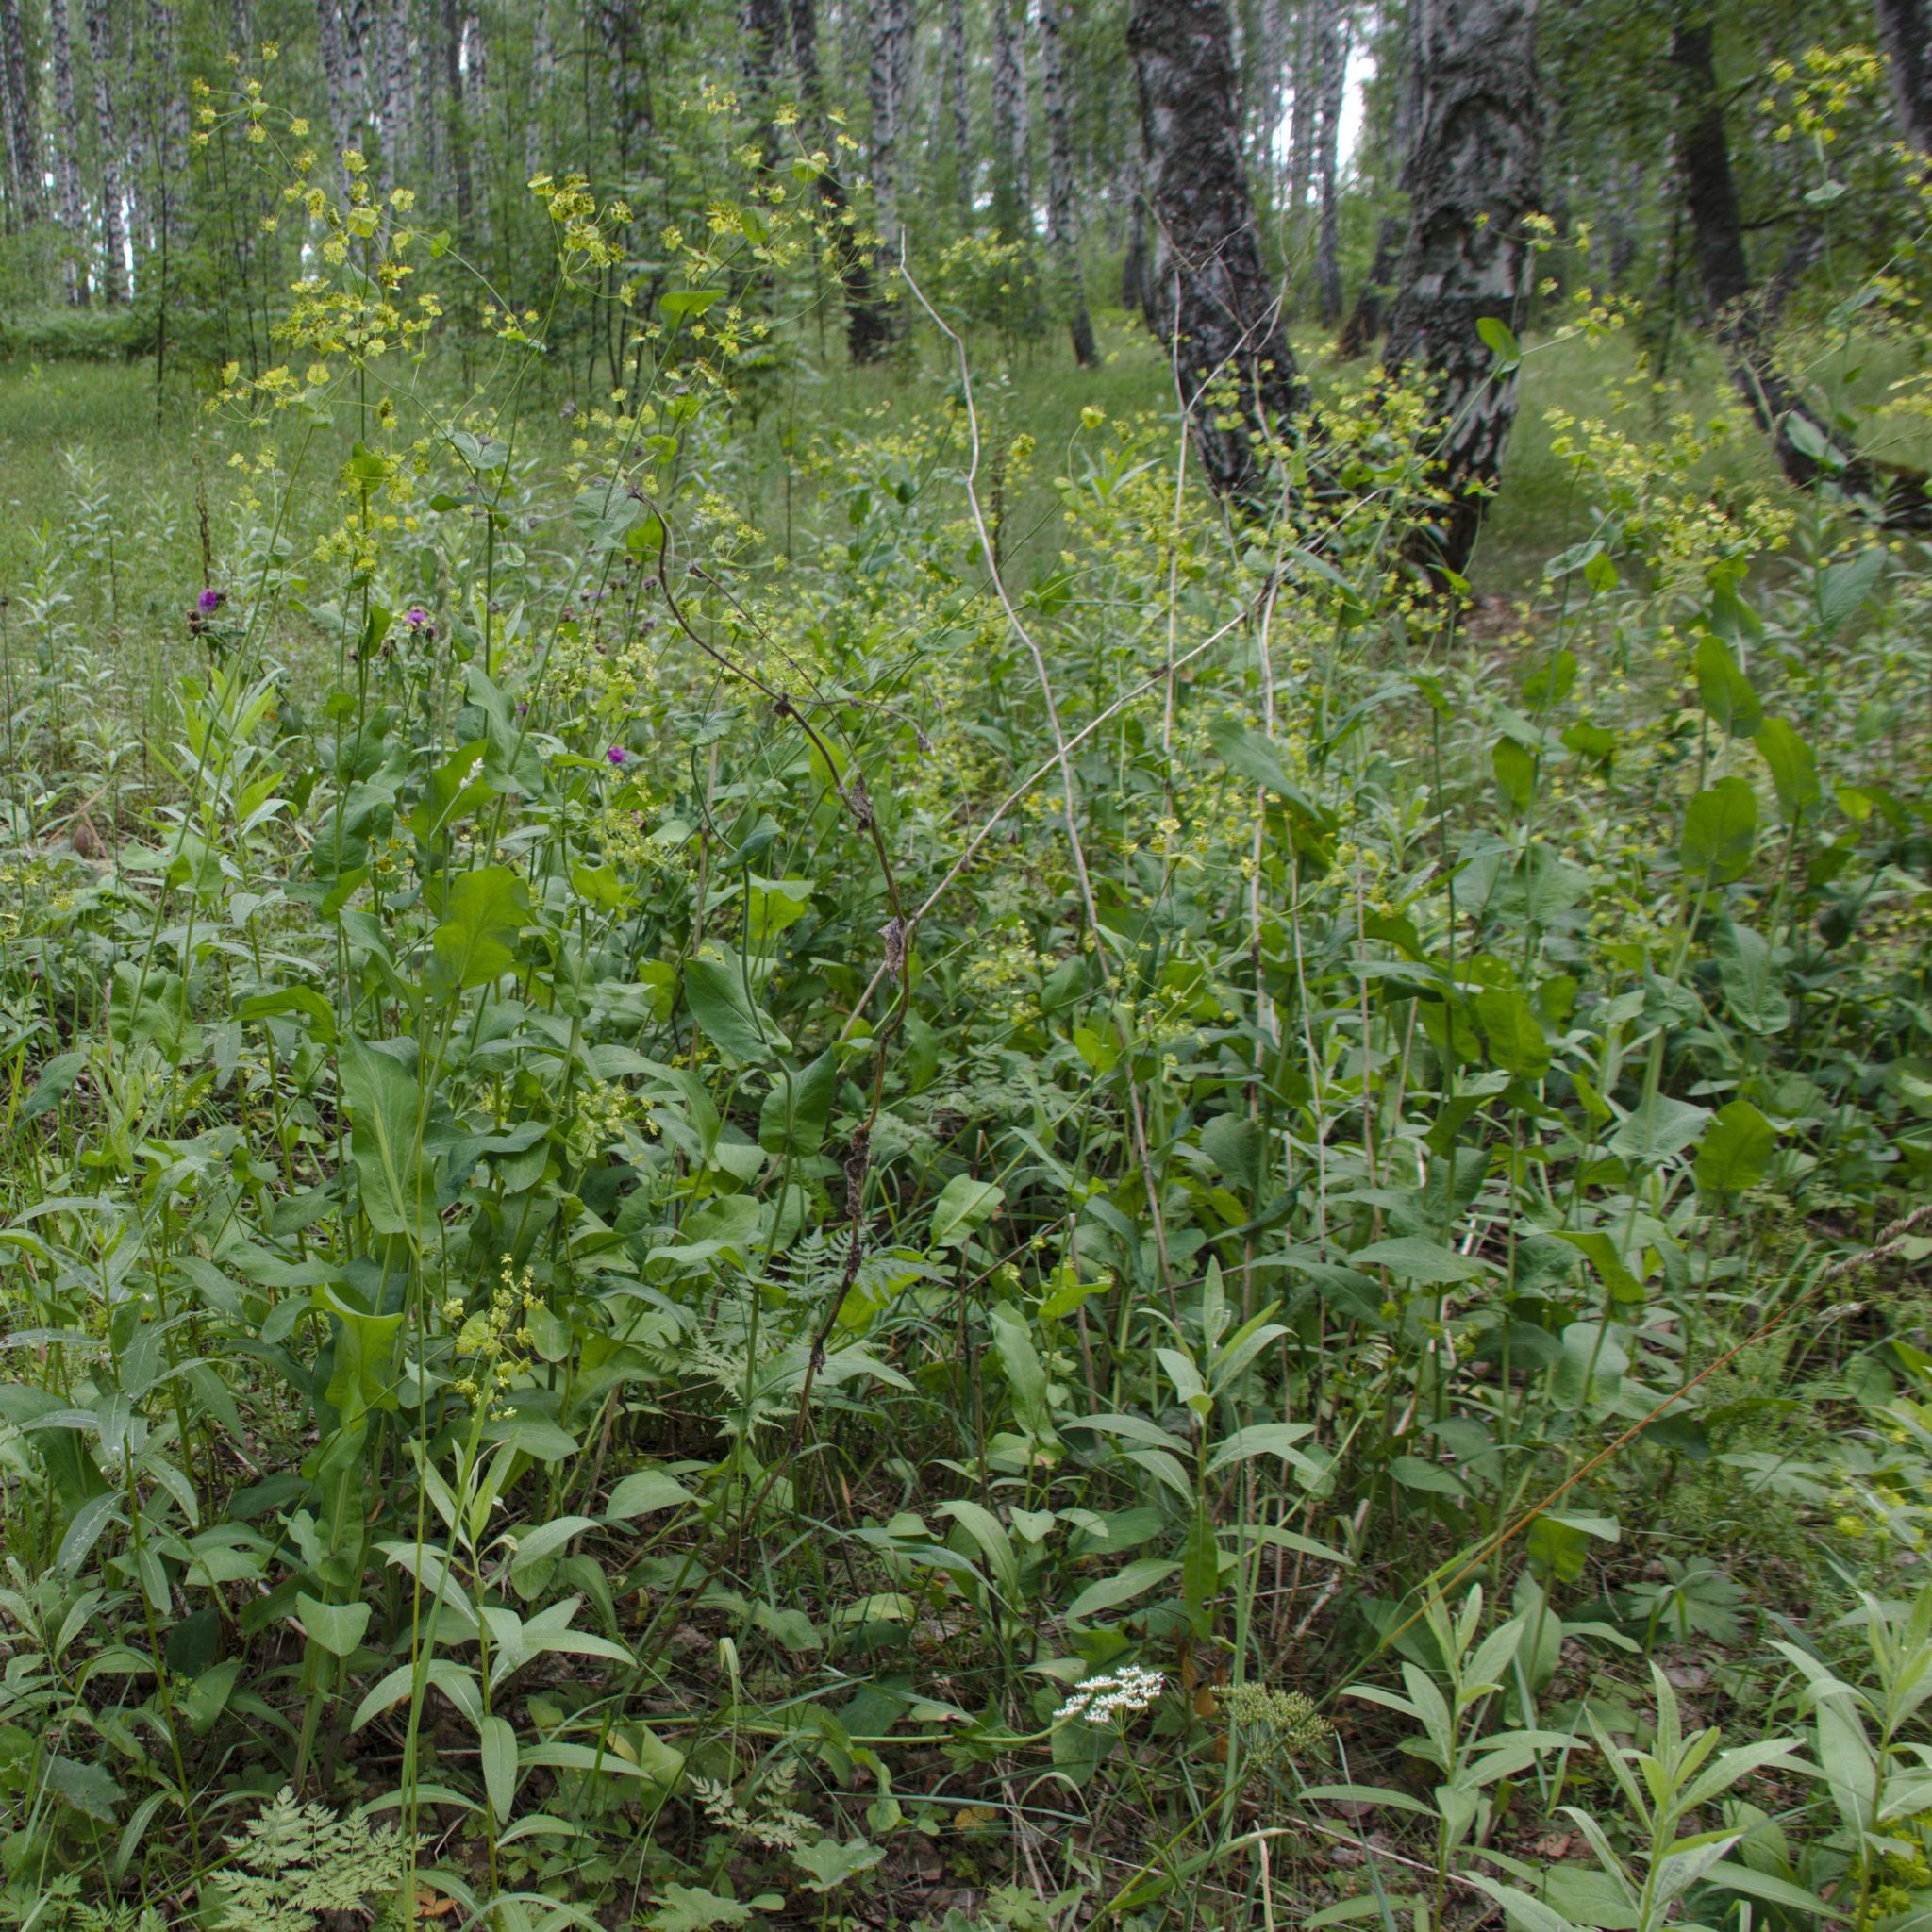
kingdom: Plantae
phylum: Tracheophyta
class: Magnoliopsida
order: Apiales
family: Apiaceae
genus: Bupleurum
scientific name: Bupleurum aureum
